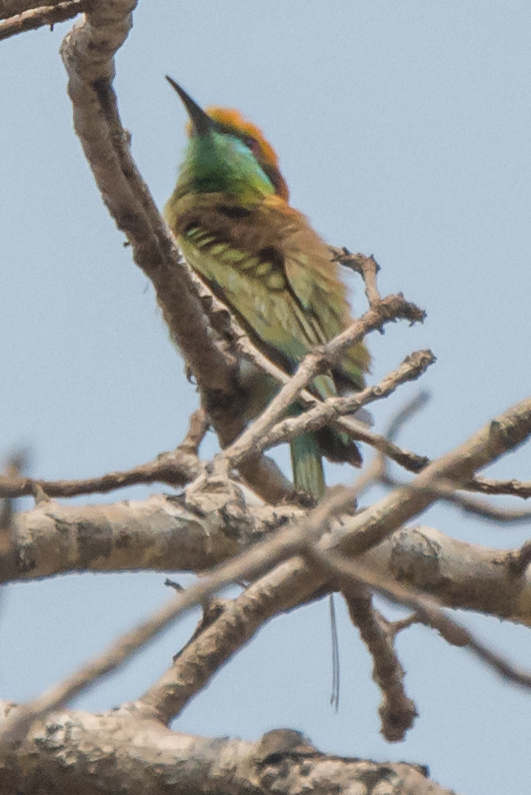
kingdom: Animalia
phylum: Chordata
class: Aves
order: Coraciiformes
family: Meropidae
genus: Merops
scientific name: Merops orientalis
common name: Green bee-eater
